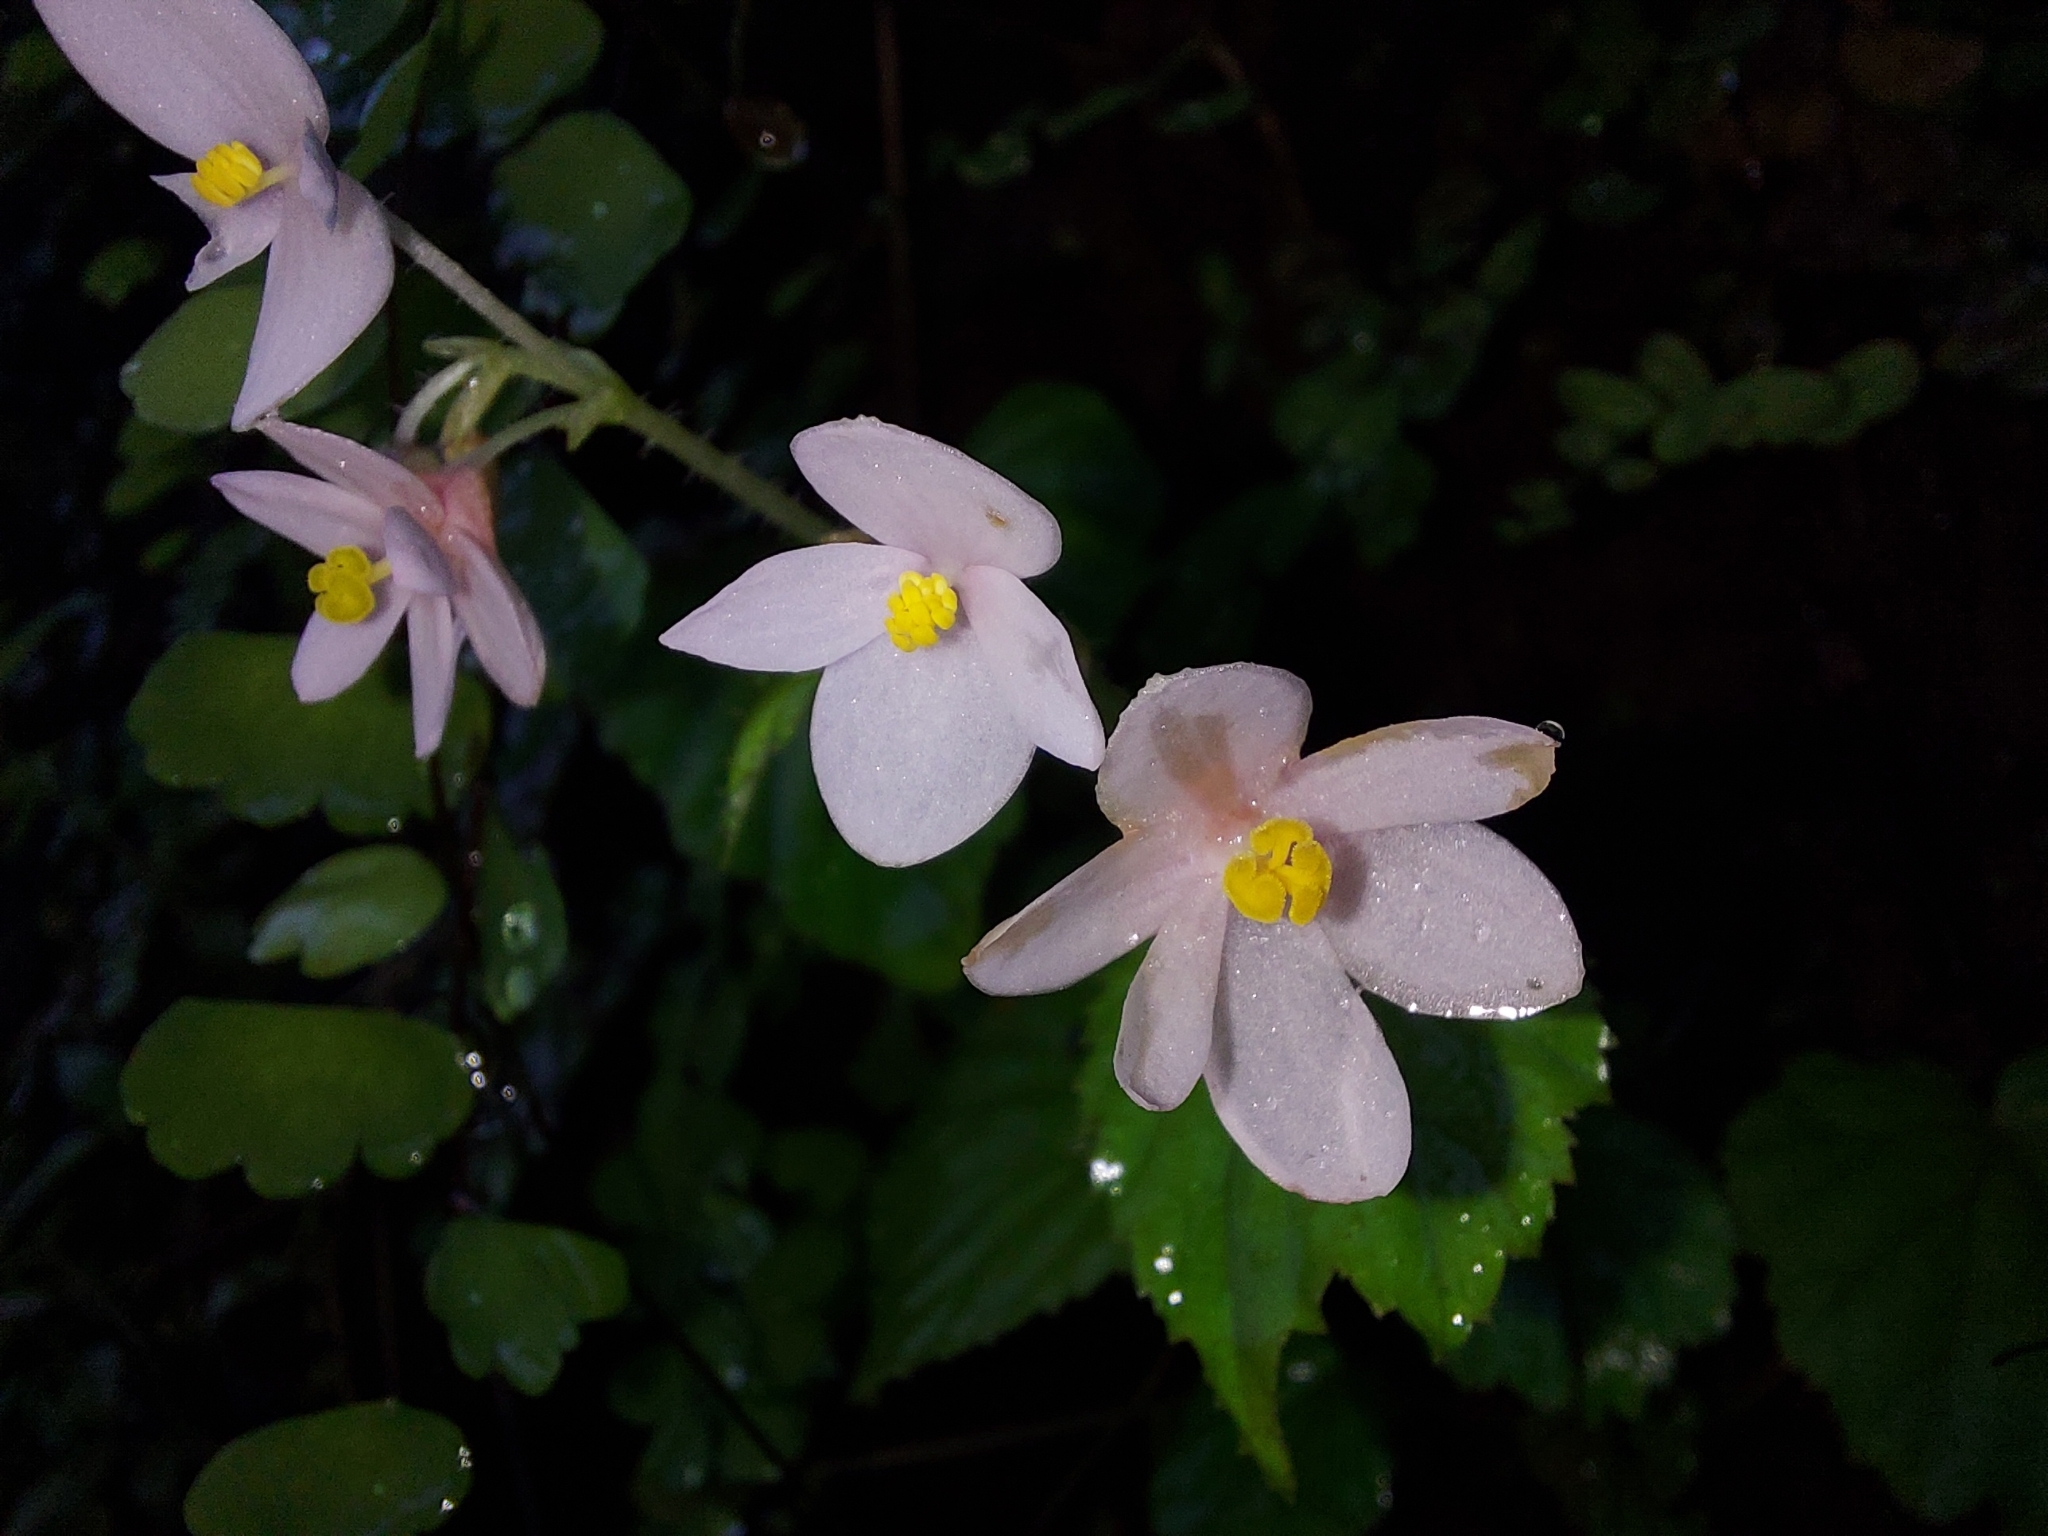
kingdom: Plantae
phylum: Tracheophyta
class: Magnoliopsida
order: Cucurbitales
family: Begoniaceae
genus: Begonia
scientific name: Begonia crenata
